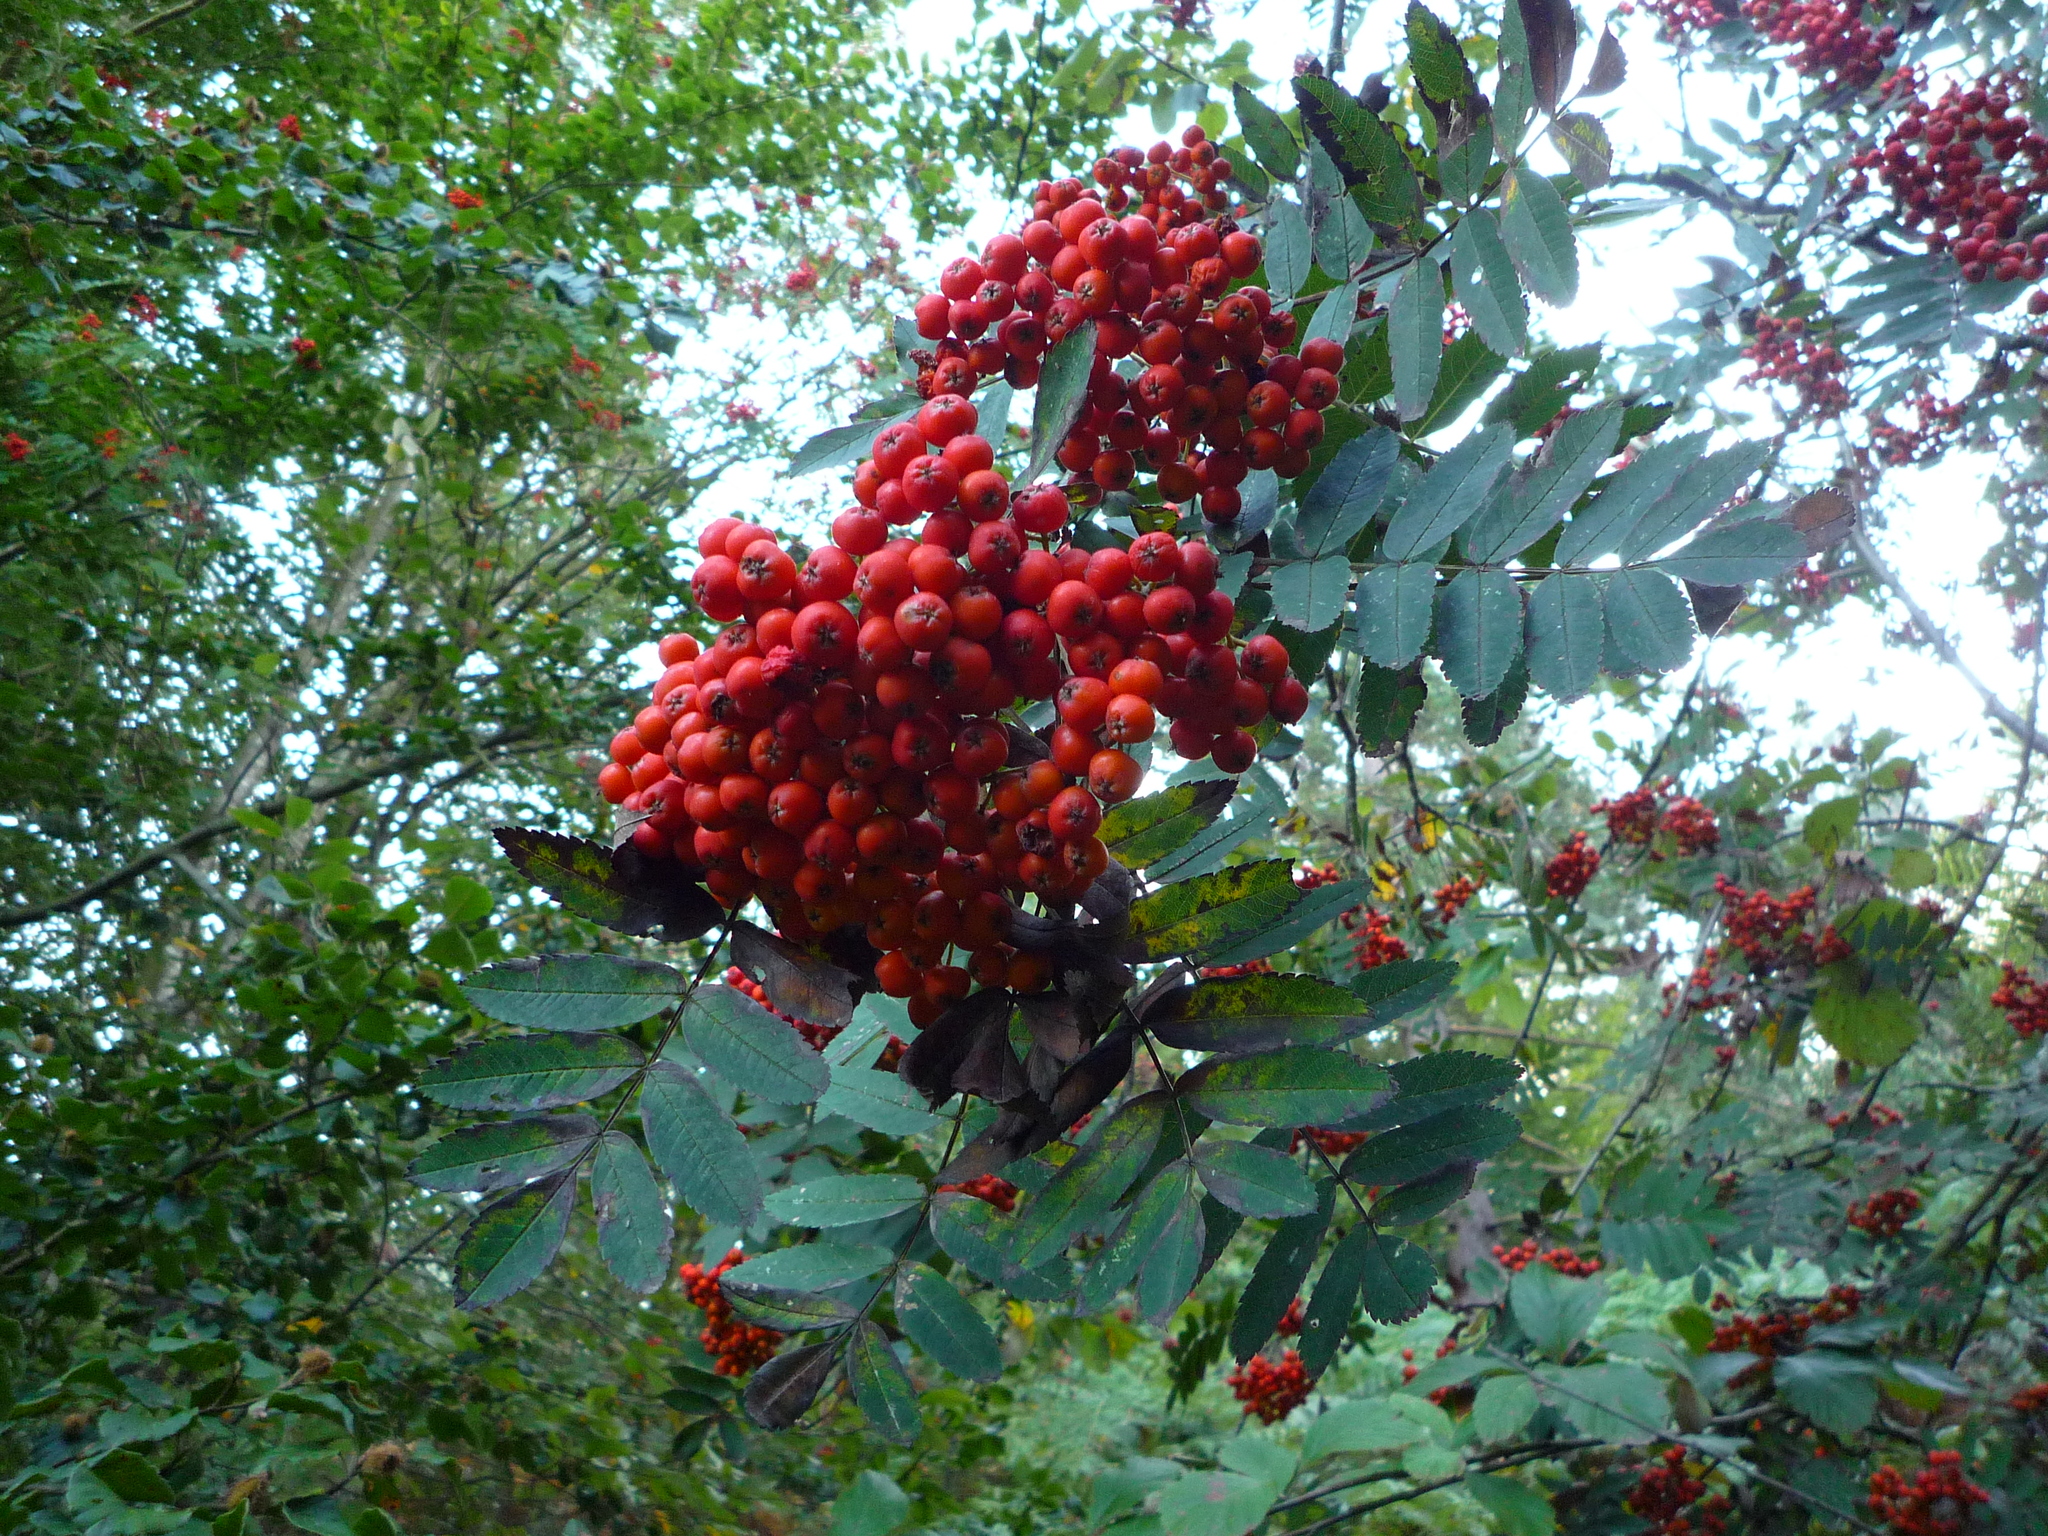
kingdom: Plantae
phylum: Tracheophyta
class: Magnoliopsida
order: Rosales
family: Rosaceae
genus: Sorbus
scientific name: Sorbus aucuparia
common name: Rowan
